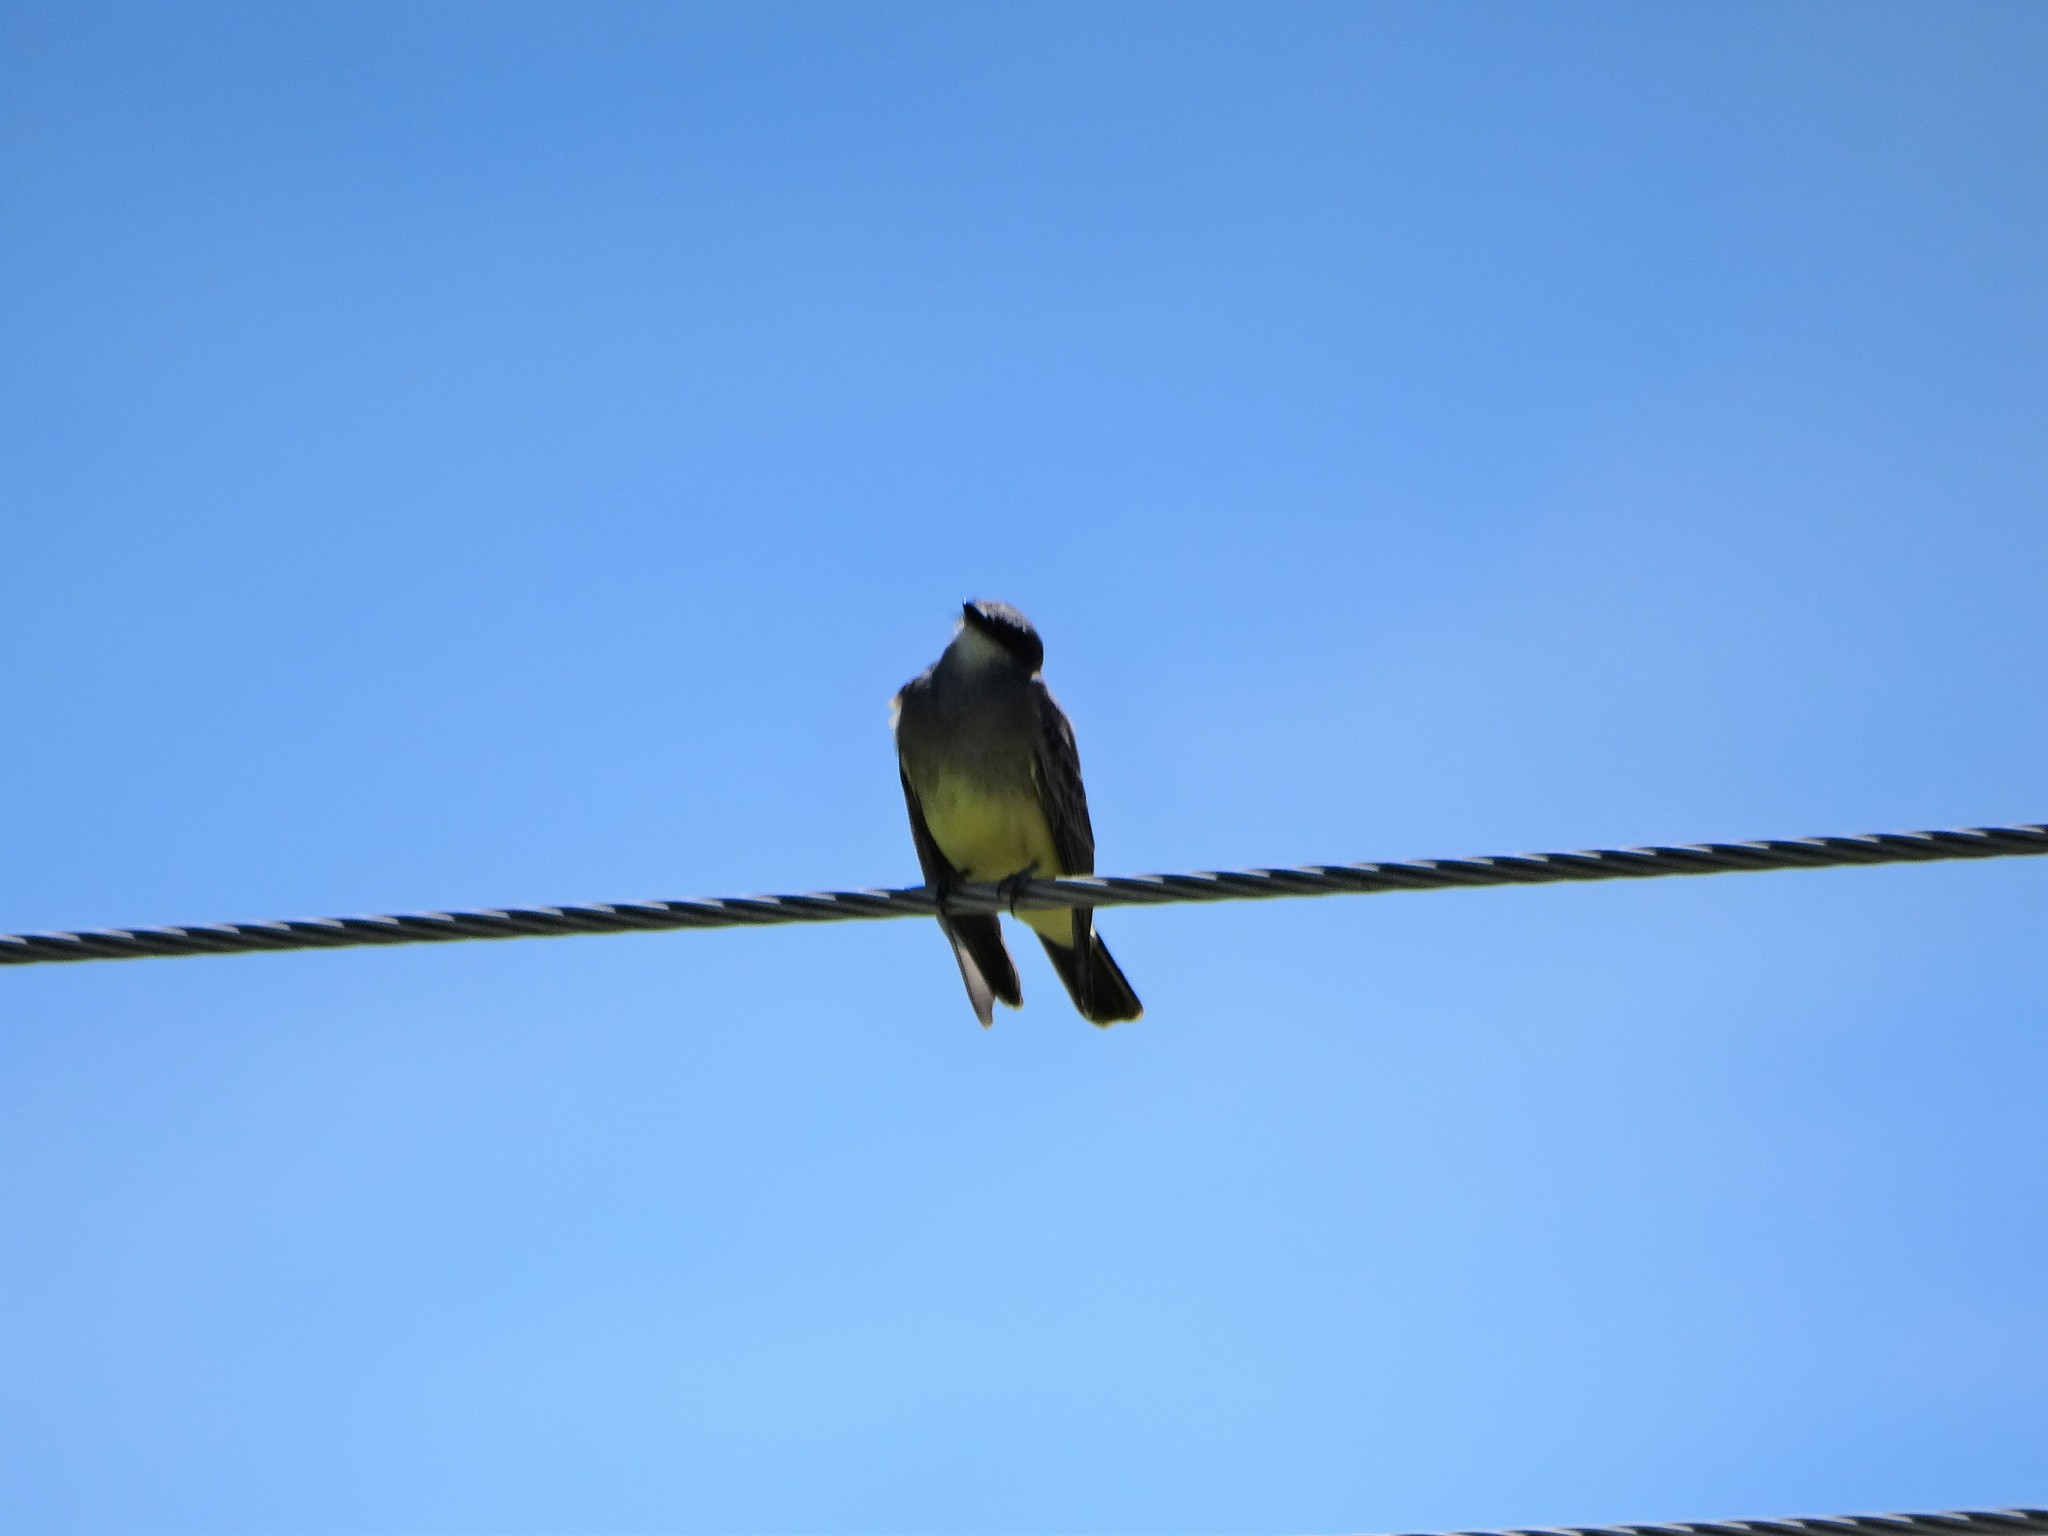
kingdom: Animalia
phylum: Chordata
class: Aves
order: Passeriformes
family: Tyrannidae
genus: Tyrannus
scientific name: Tyrannus vociferans
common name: Cassin's kingbird
